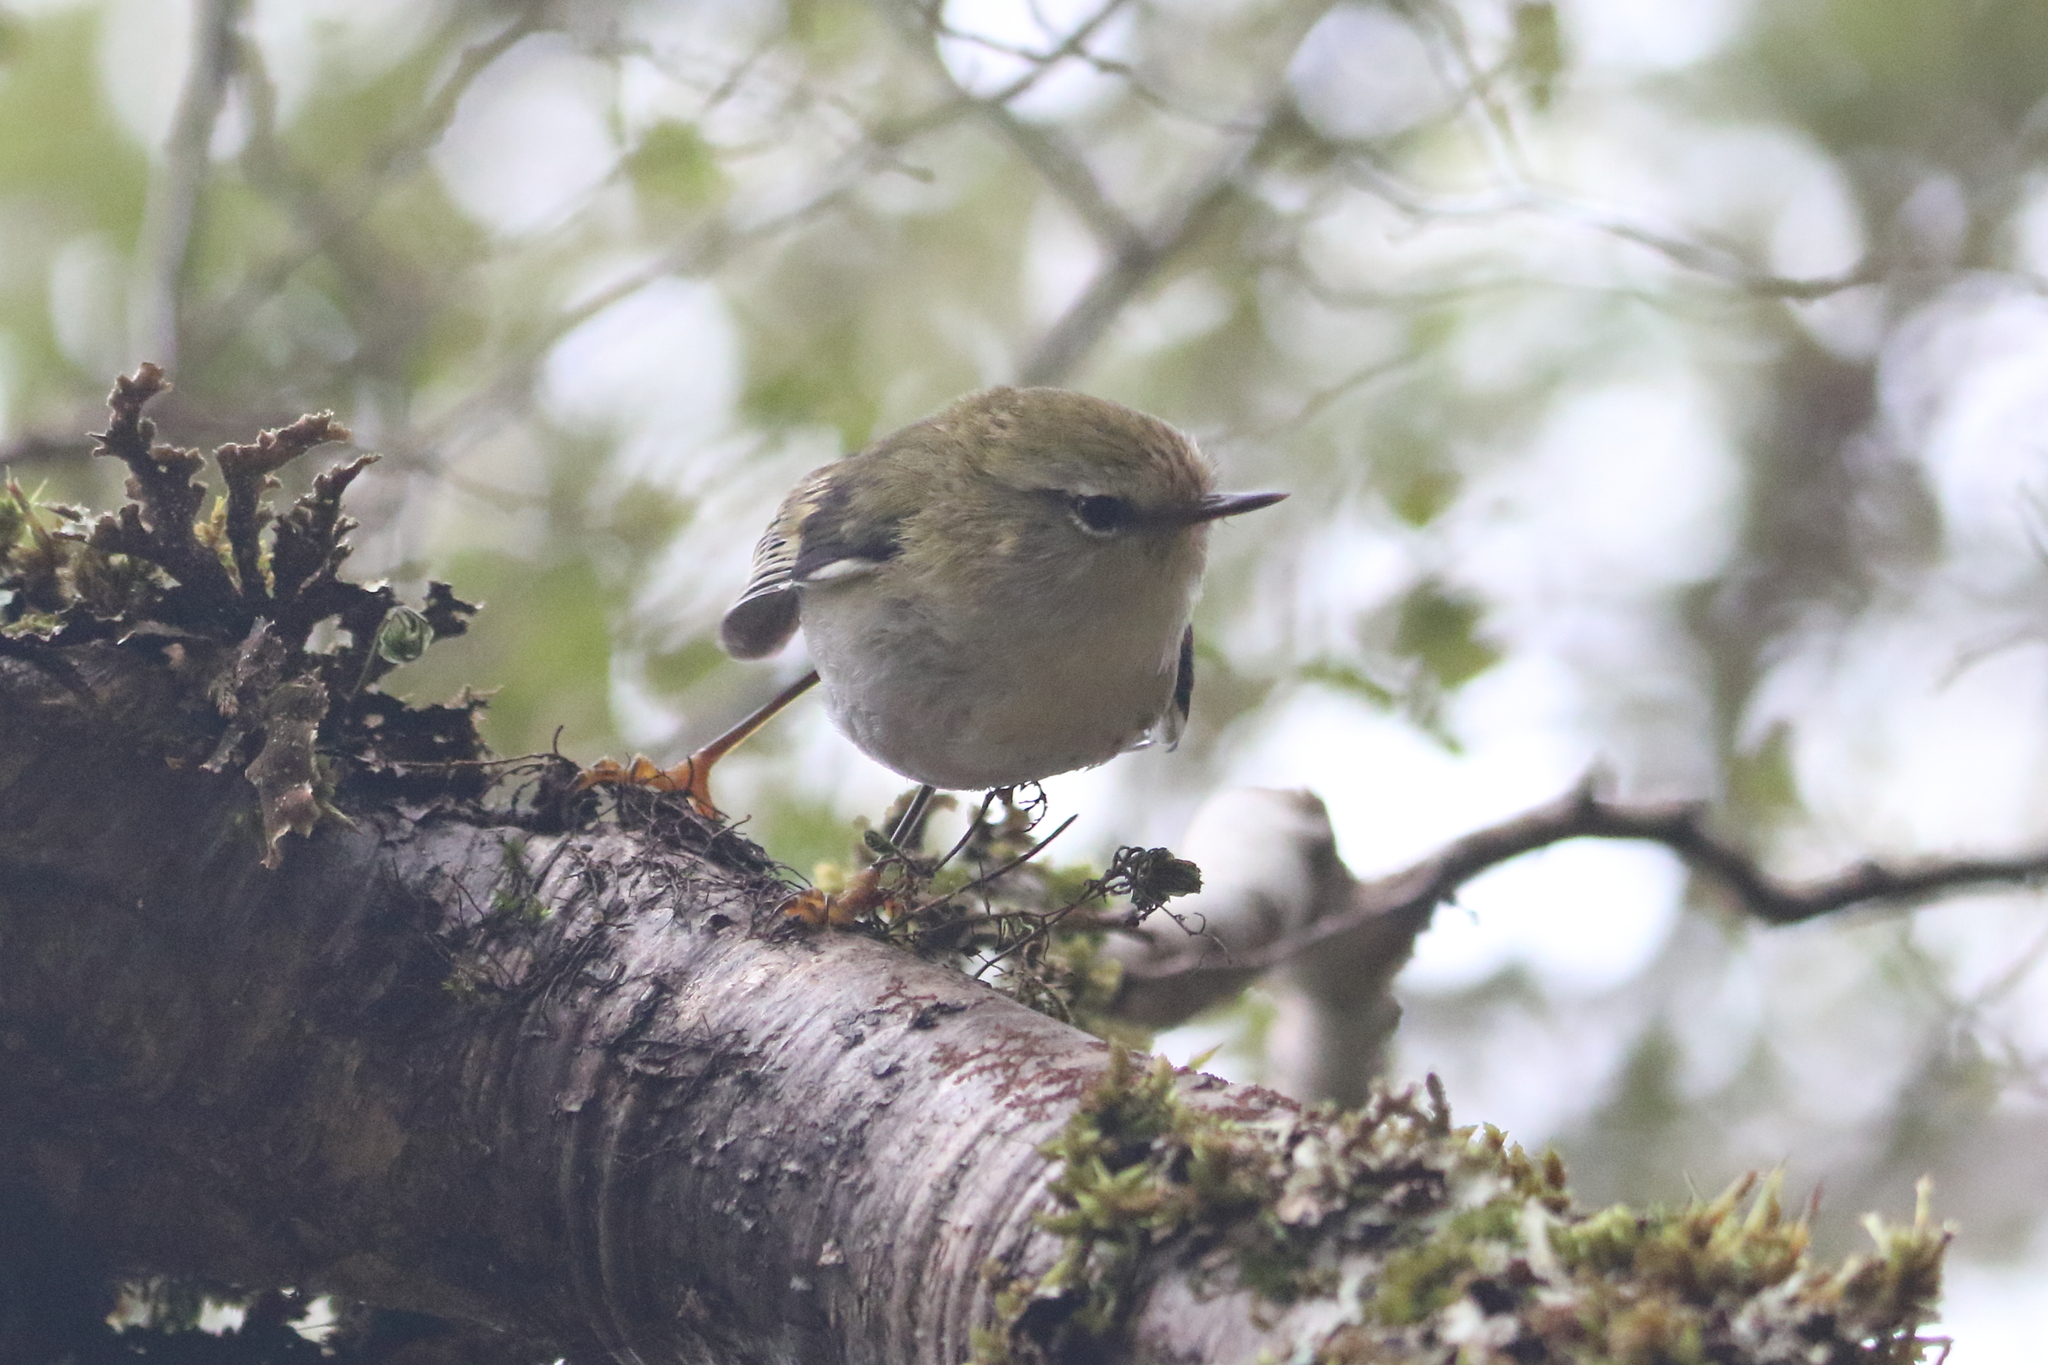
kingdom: Animalia
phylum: Chordata
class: Aves
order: Passeriformes
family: Acanthisittidae
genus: Acanthisitta
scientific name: Acanthisitta chloris
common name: Rifleman
